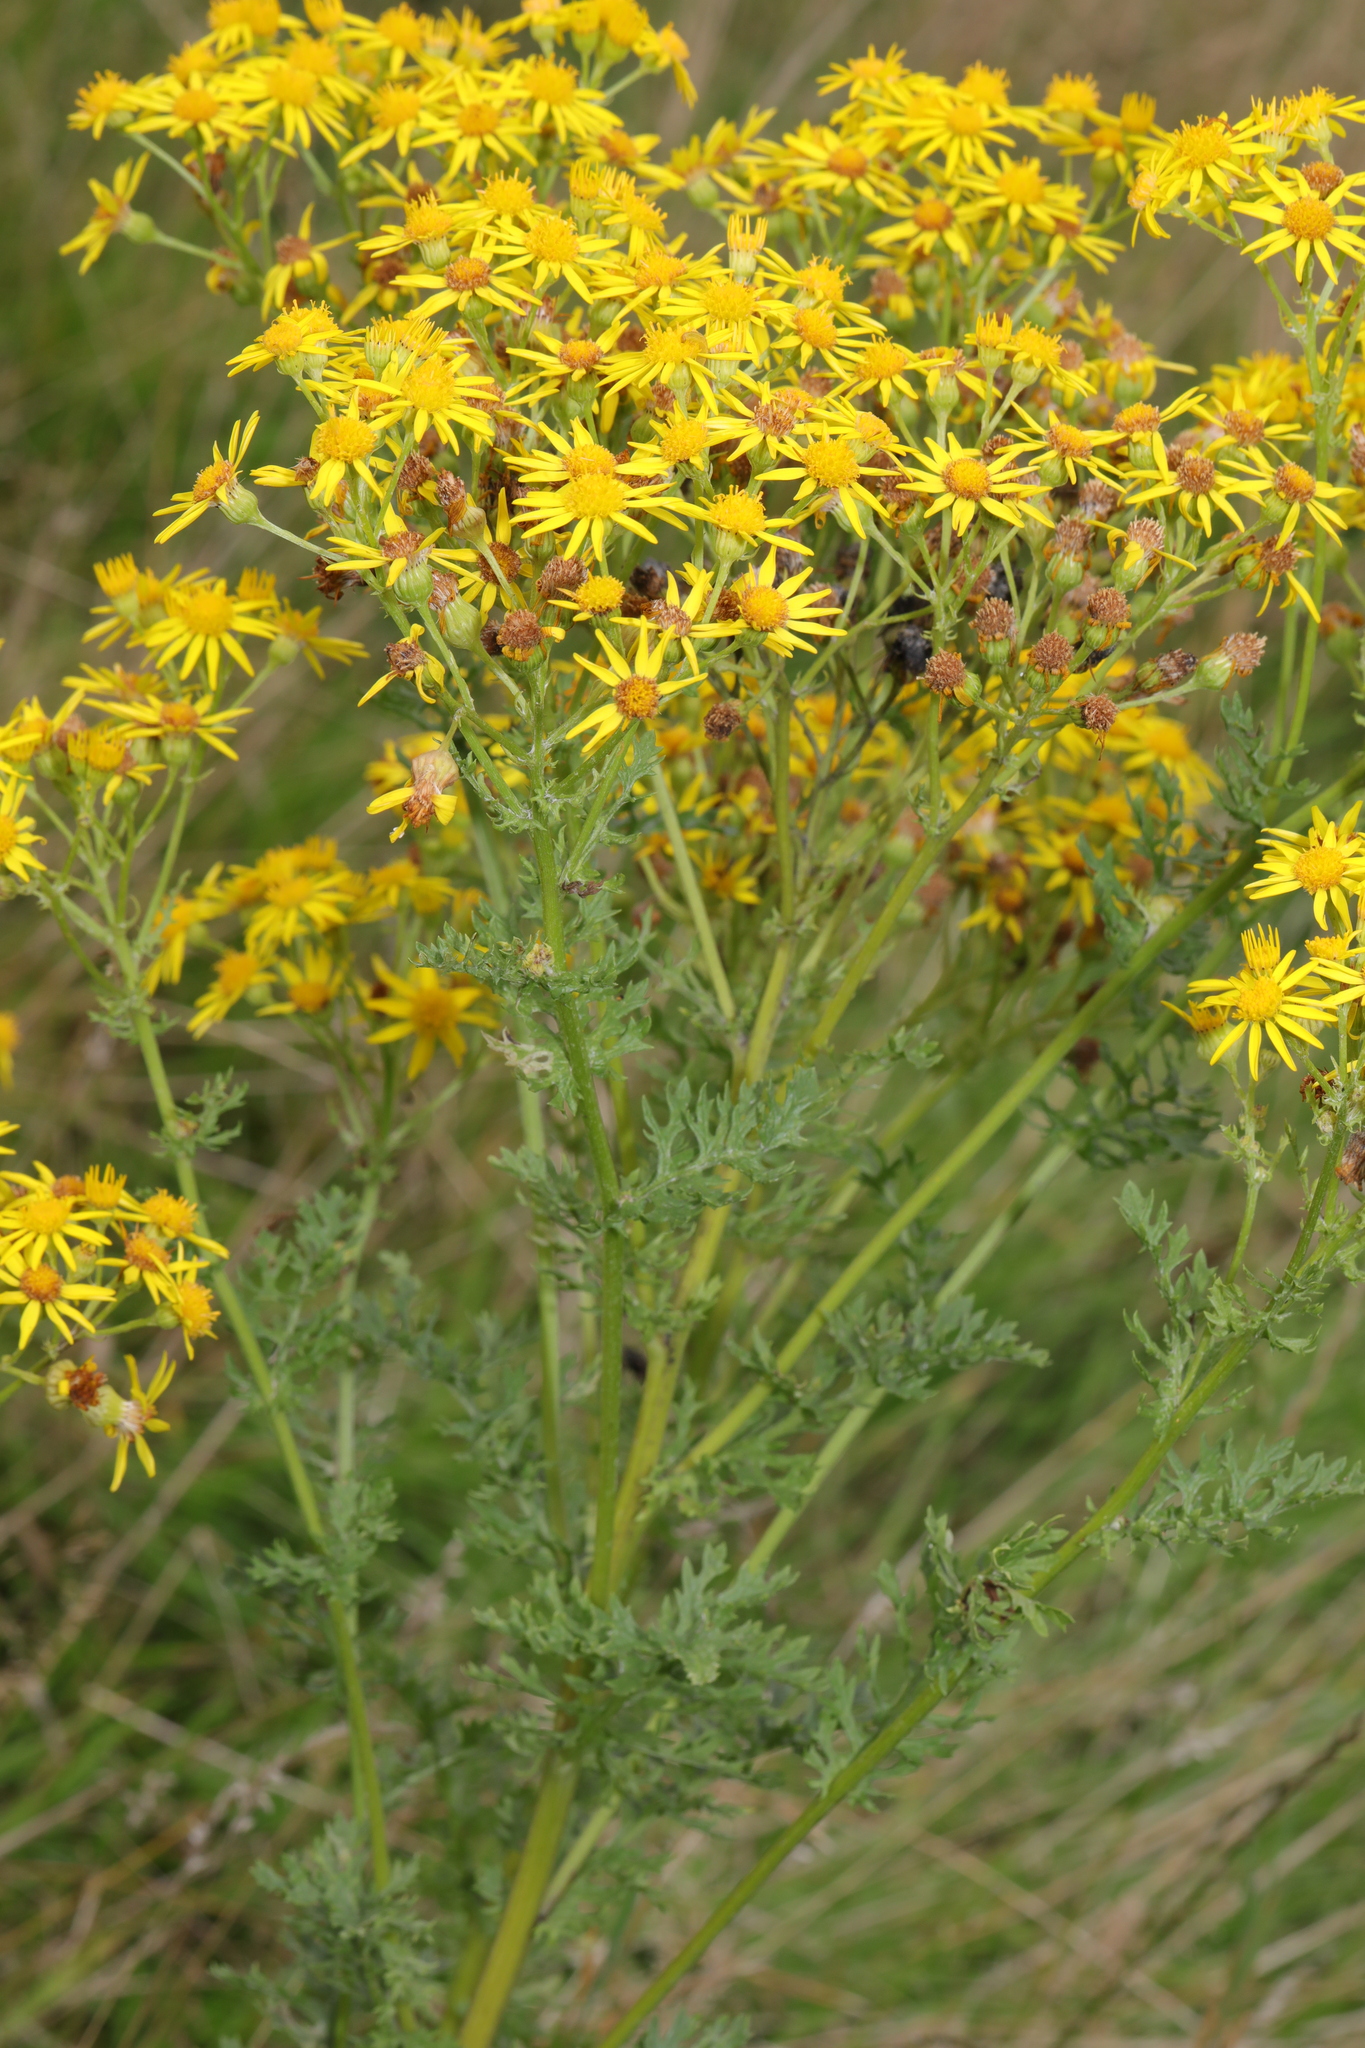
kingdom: Plantae
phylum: Tracheophyta
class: Magnoliopsida
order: Asterales
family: Asteraceae
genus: Jacobaea
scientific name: Jacobaea vulgaris
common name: Stinking willie
